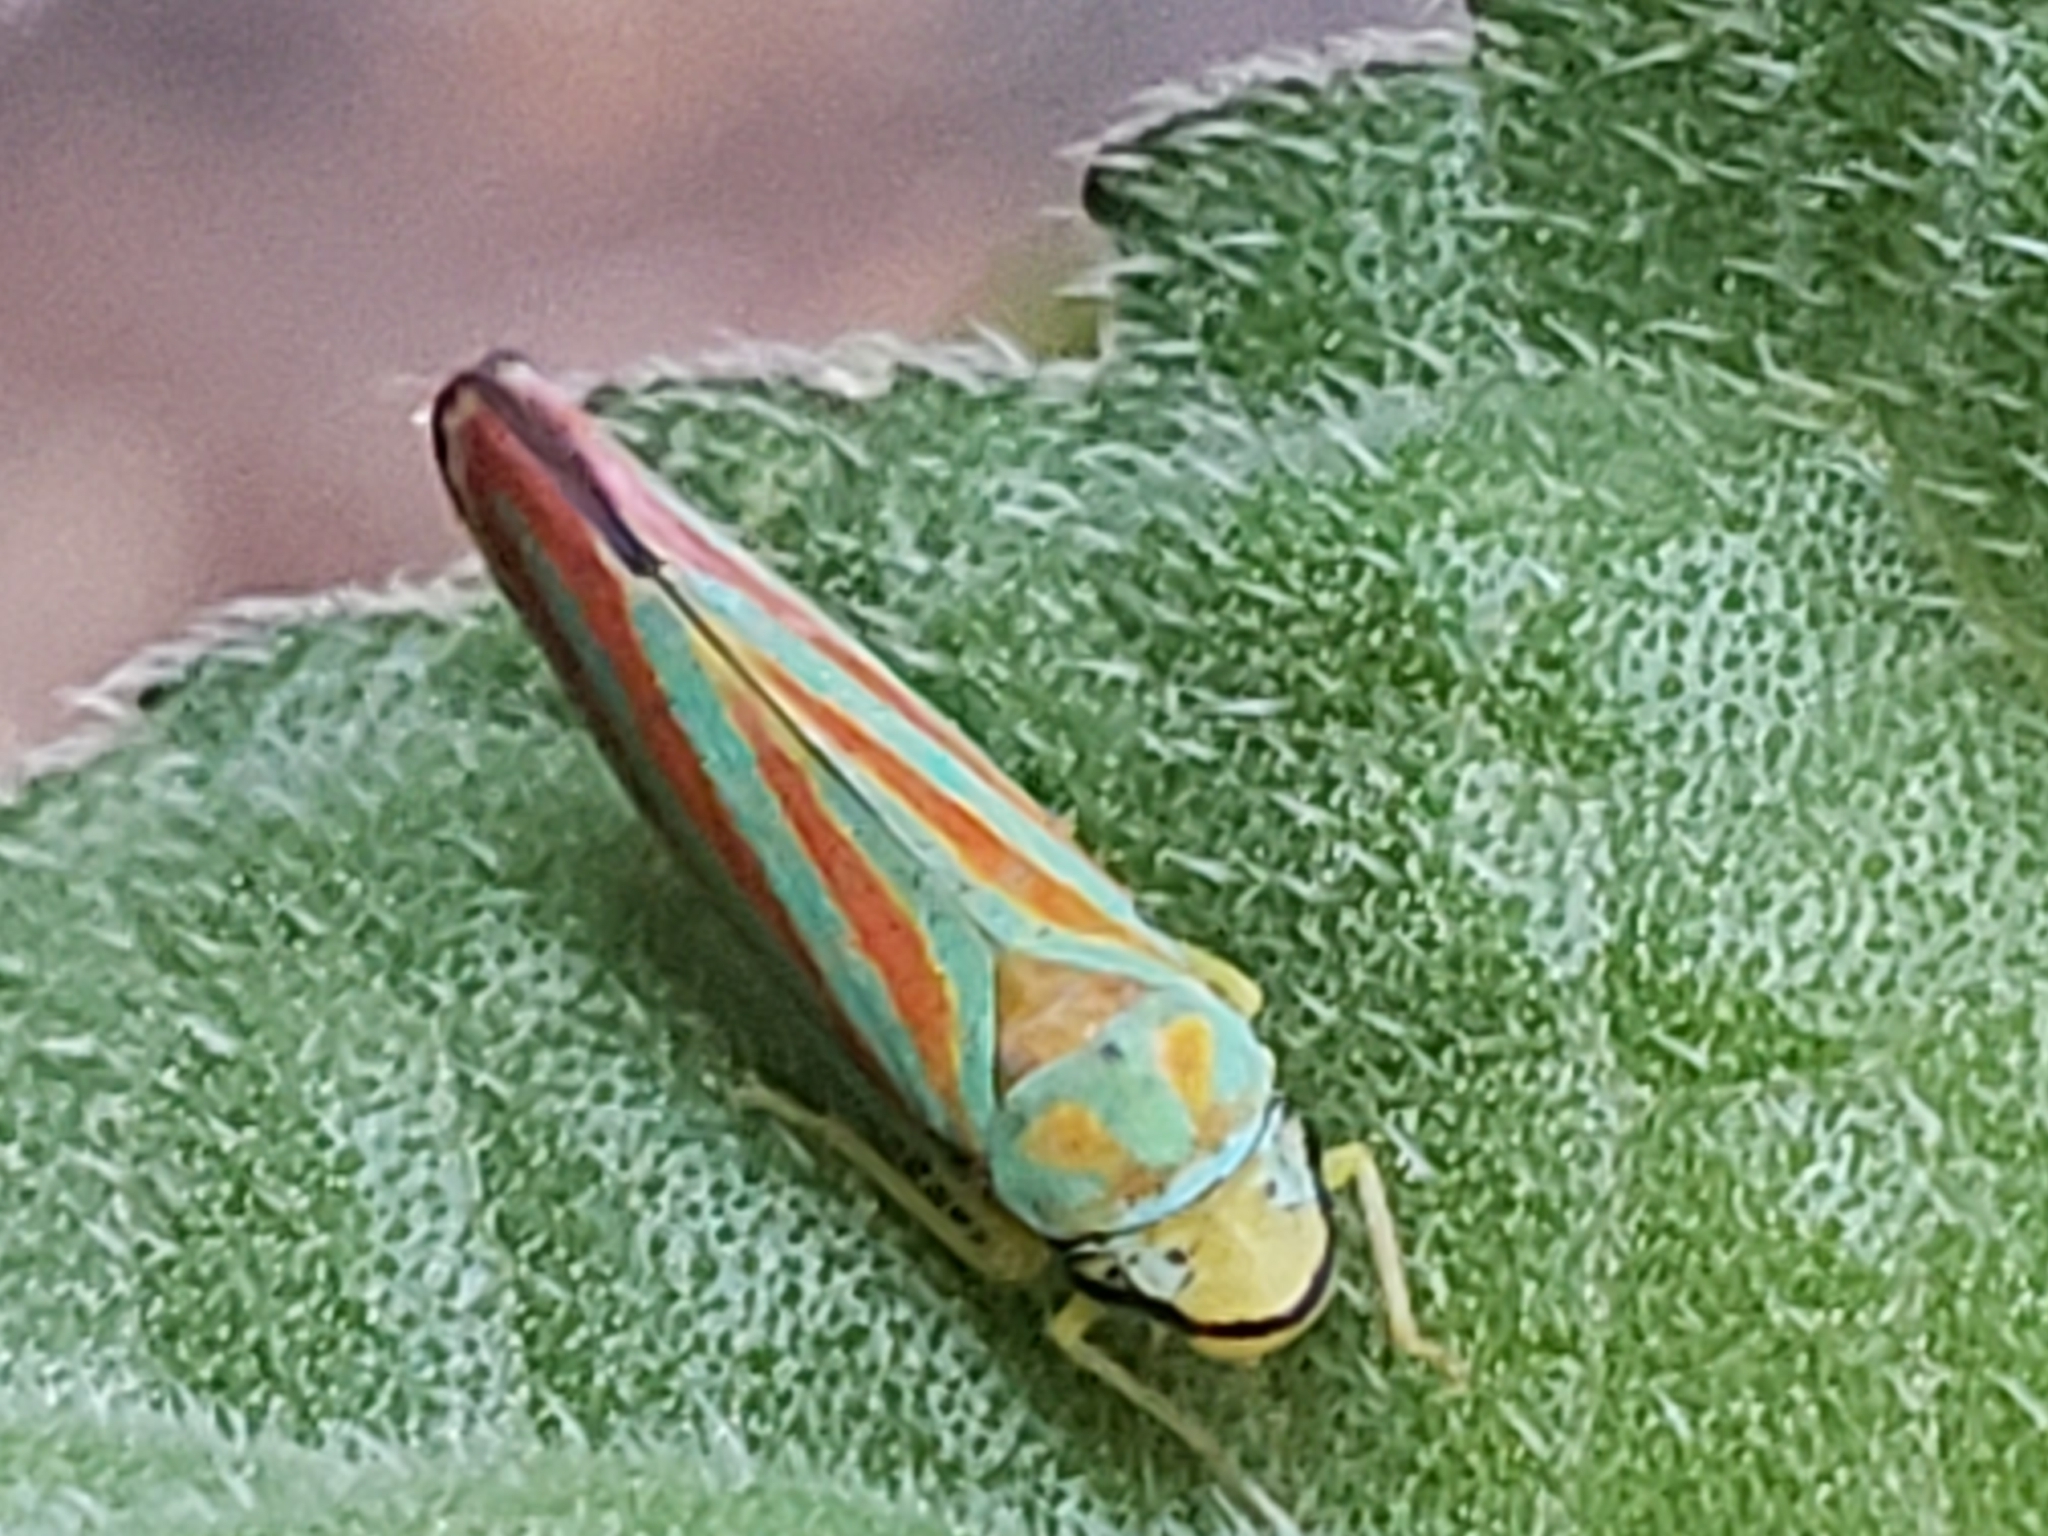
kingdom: Animalia
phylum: Arthropoda
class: Insecta
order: Hemiptera
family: Cicadellidae
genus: Graphocephala
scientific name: Graphocephala coccinea
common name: Candy-striped leafhopper
